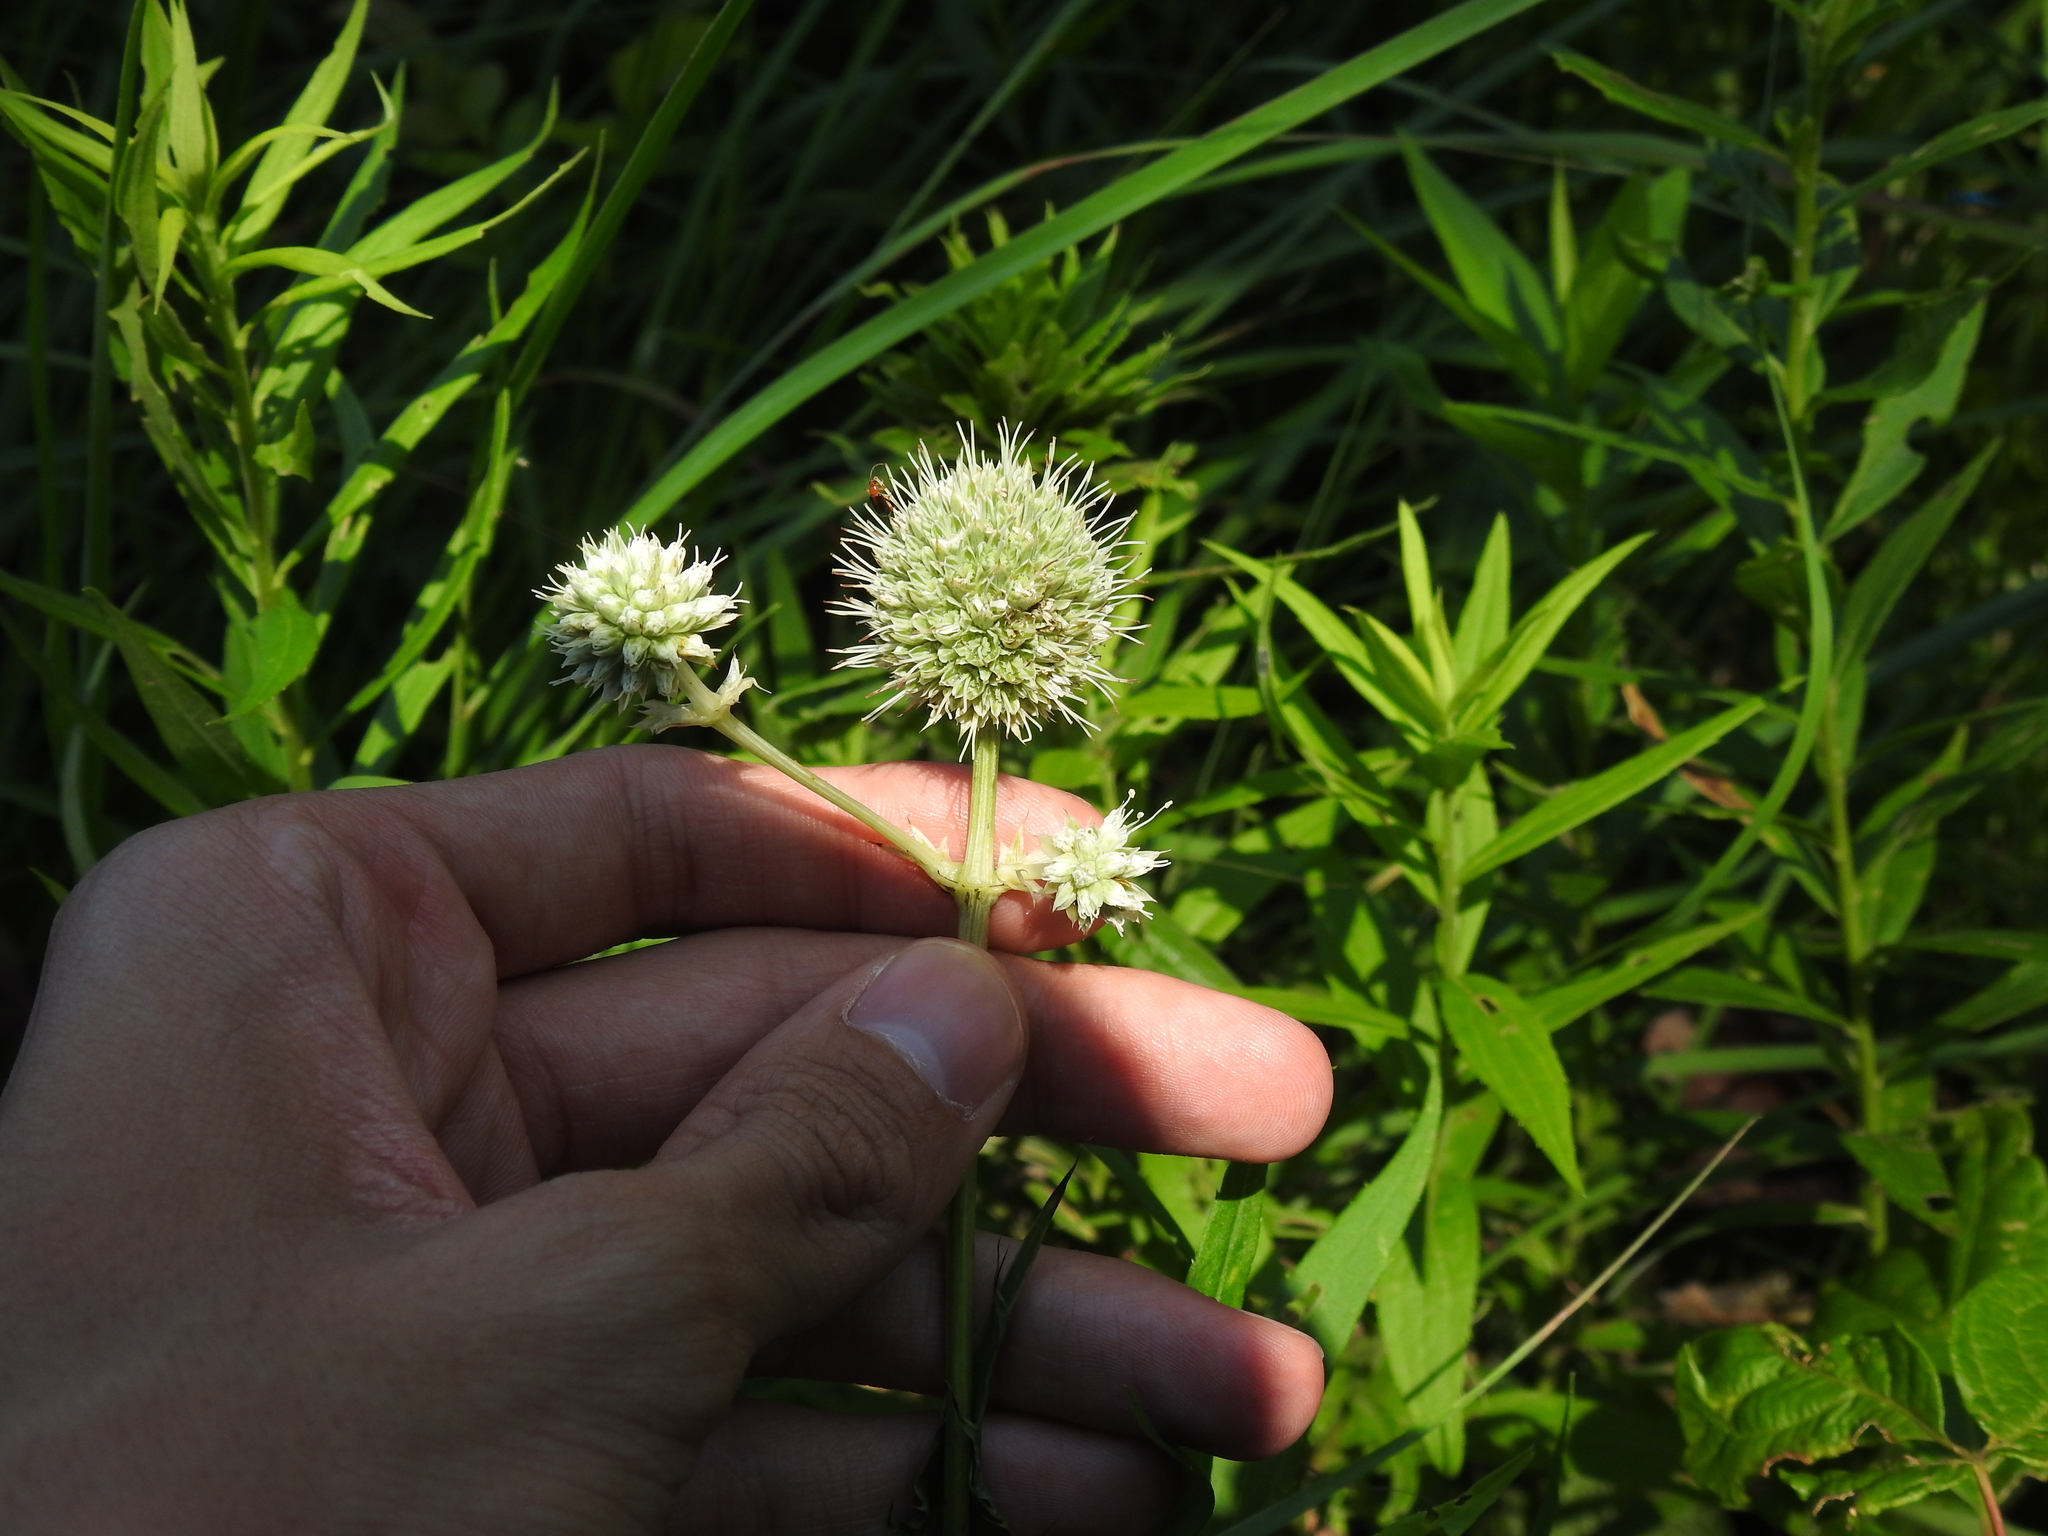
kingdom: Plantae
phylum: Tracheophyta
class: Magnoliopsida
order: Apiales
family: Apiaceae
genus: Eryngium
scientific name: Eryngium yuccifolium
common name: Button eryngo
